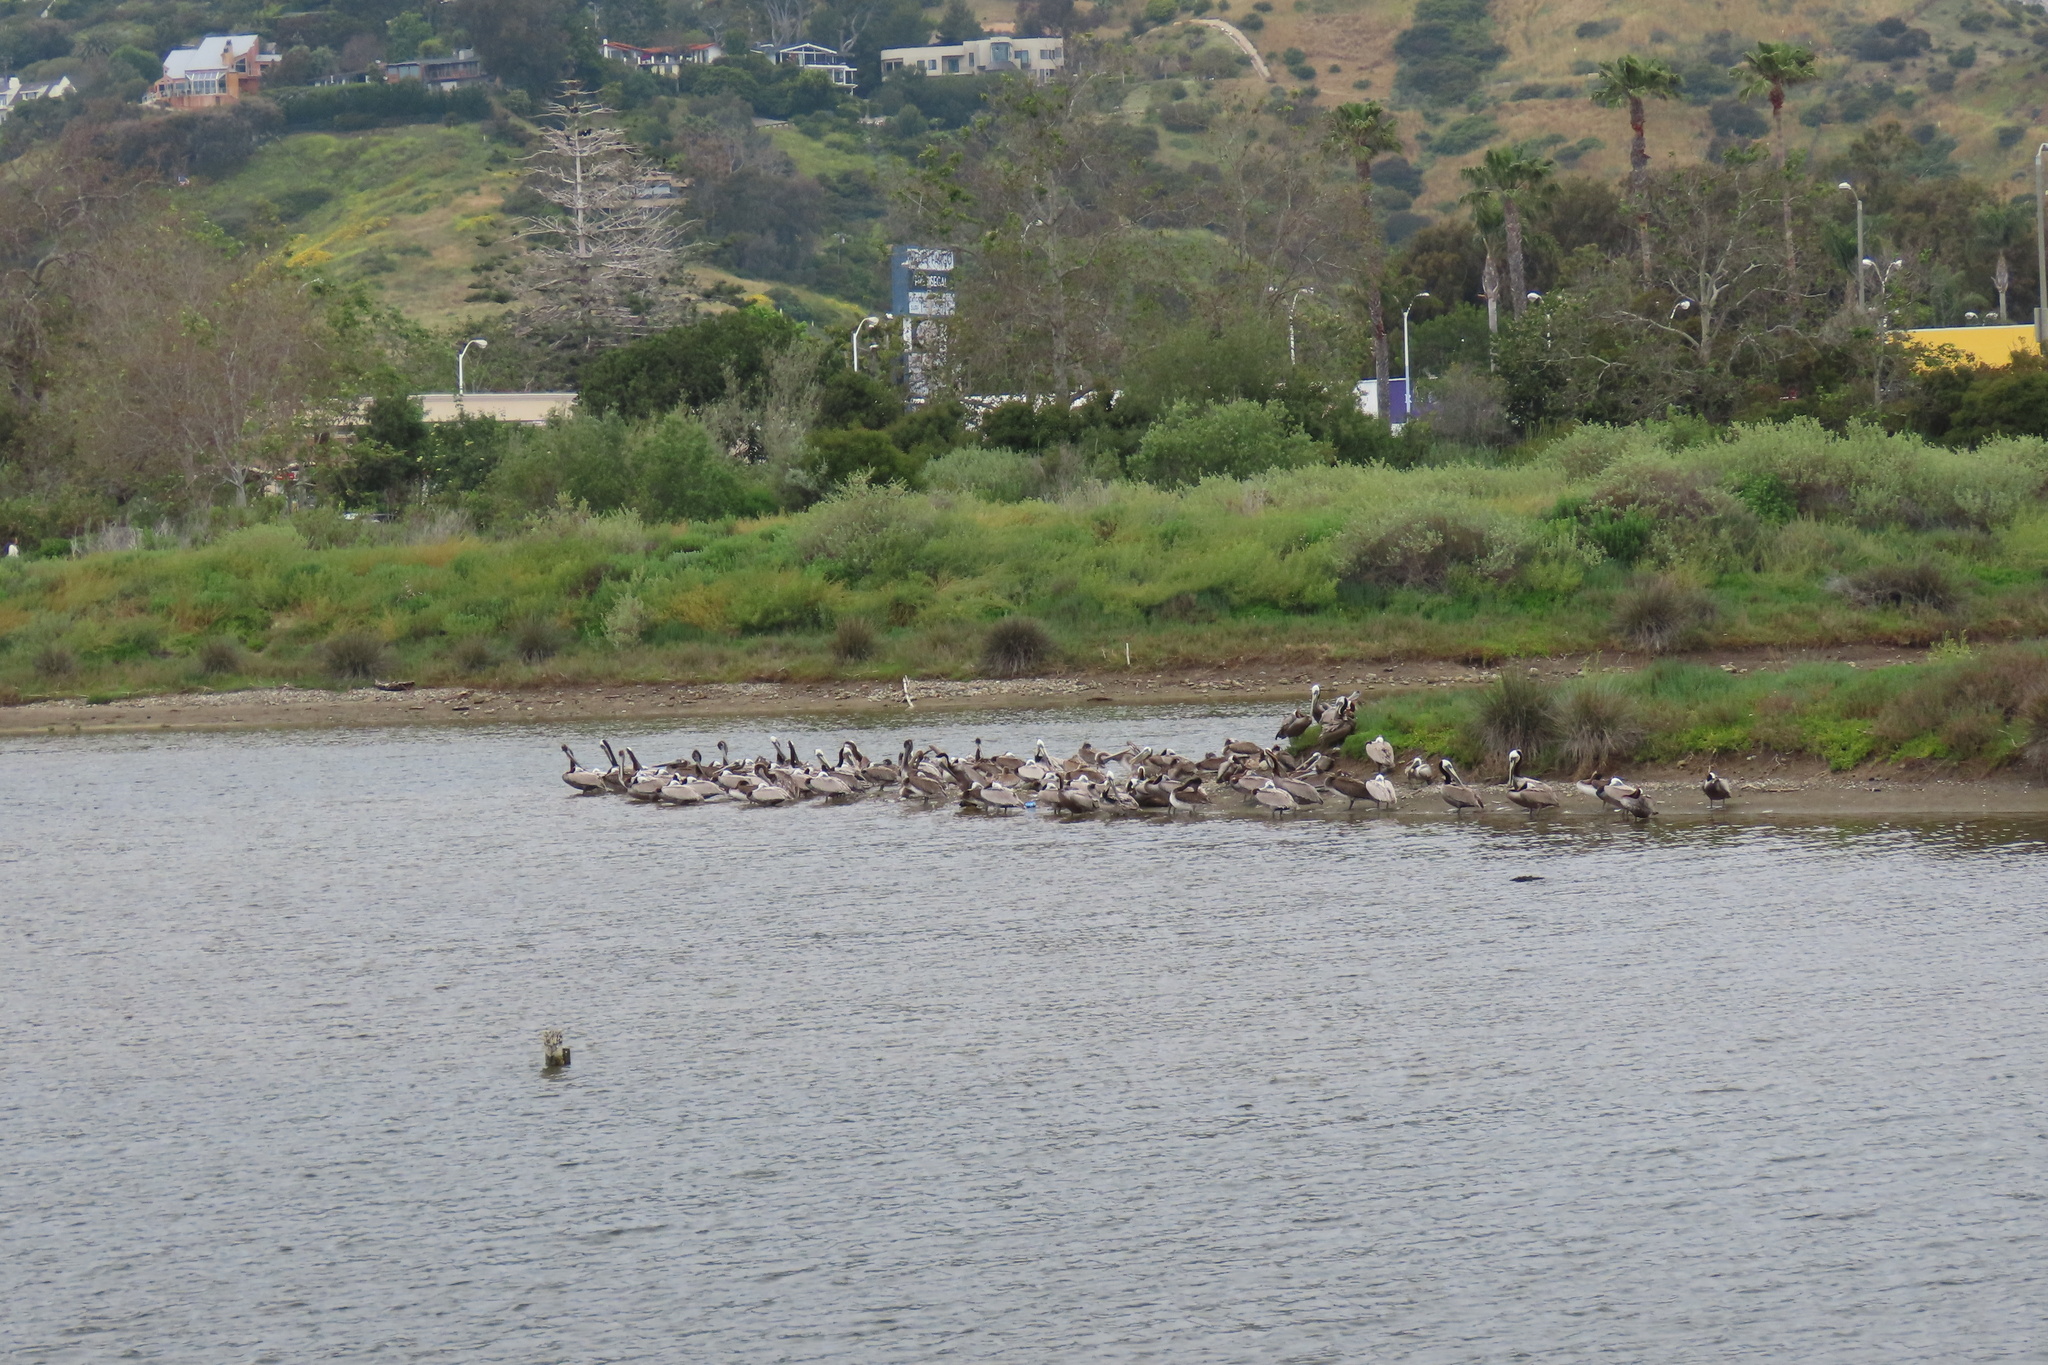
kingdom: Animalia
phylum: Chordata
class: Aves
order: Pelecaniformes
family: Pelecanidae
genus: Pelecanus
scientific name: Pelecanus occidentalis
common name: Brown pelican
